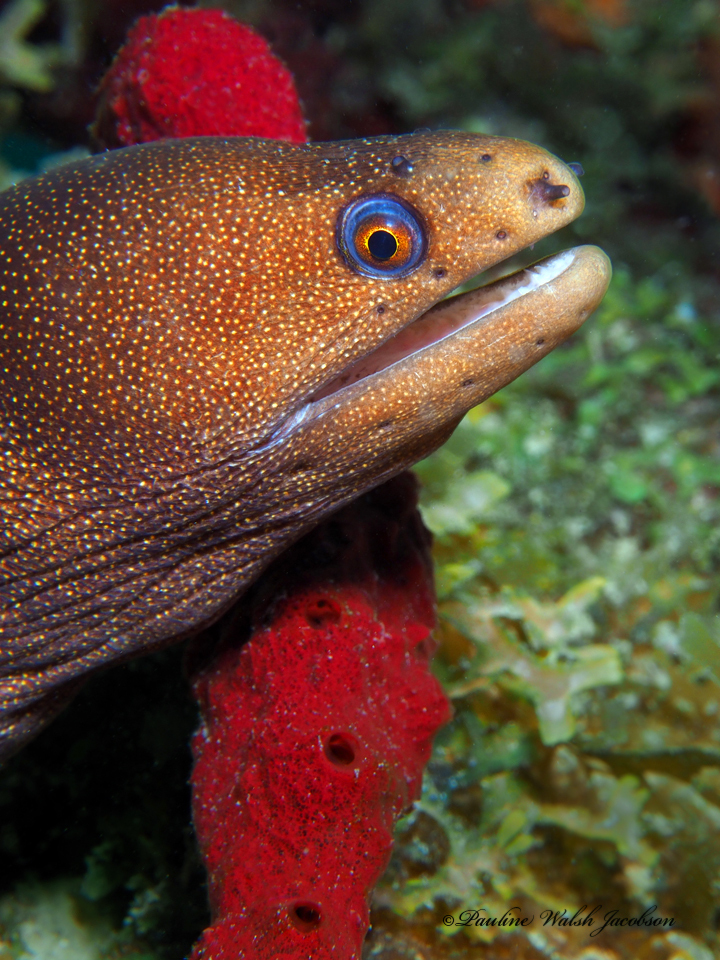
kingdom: Animalia
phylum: Chordata
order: Anguilliformes
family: Muraenidae
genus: Gymnothorax
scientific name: Gymnothorax miliaris
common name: Goldentail moray
